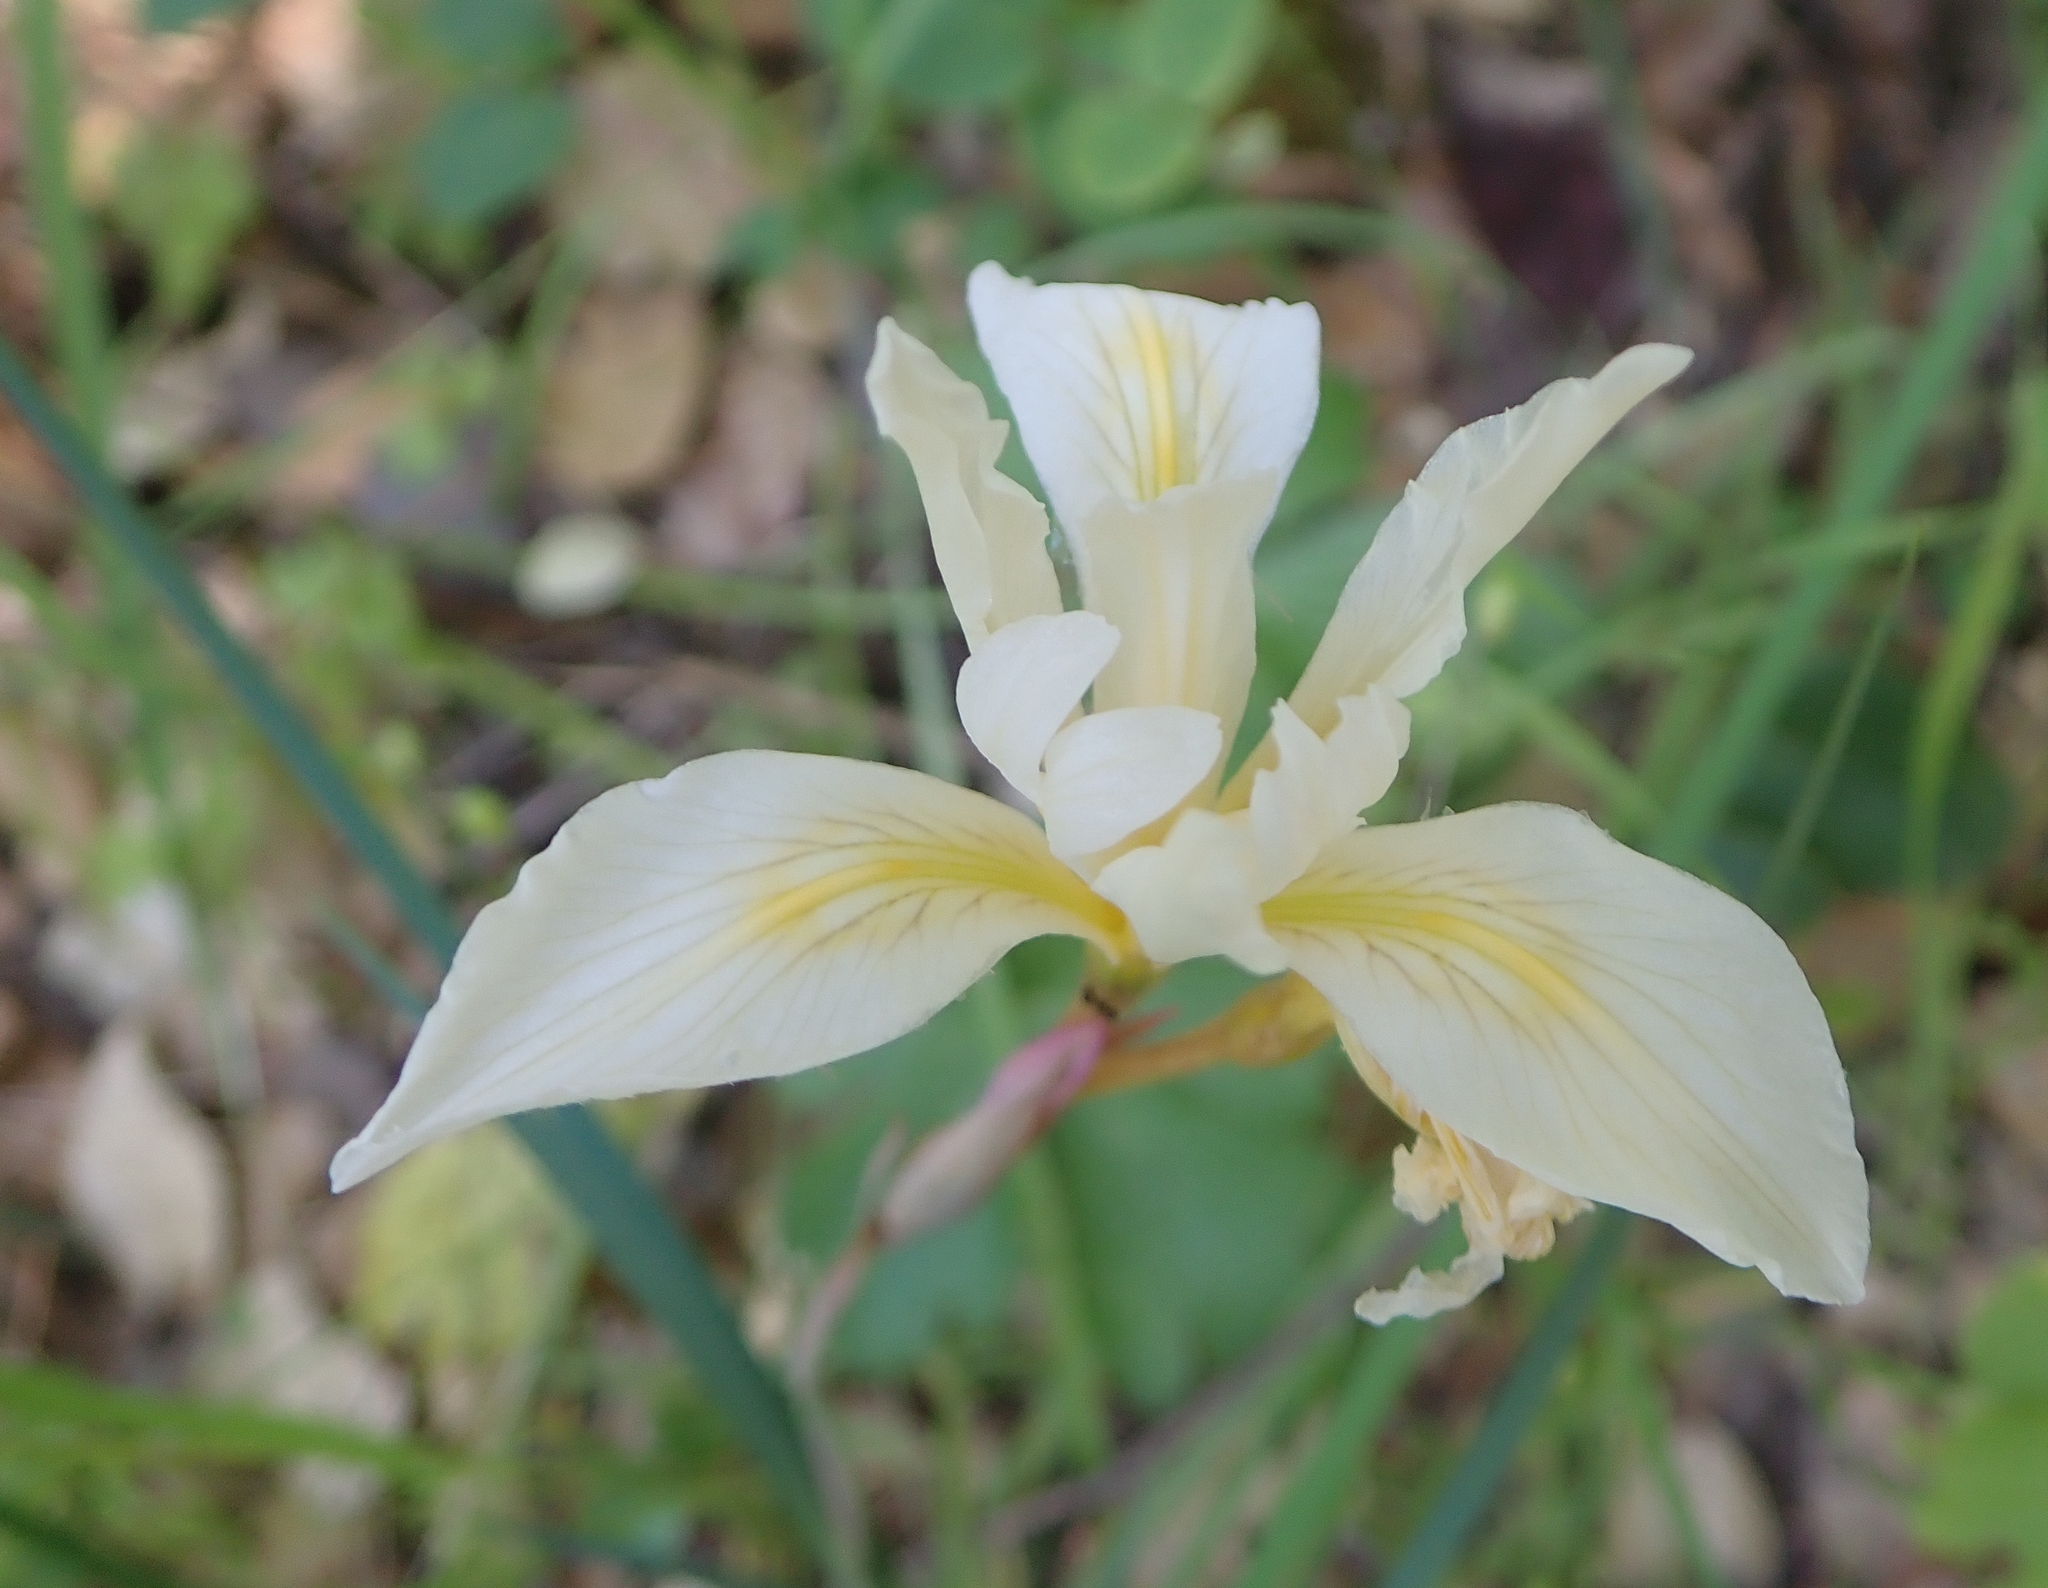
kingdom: Plantae
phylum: Tracheophyta
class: Liliopsida
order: Asparagales
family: Iridaceae
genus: Iris
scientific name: Iris fernaldii
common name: Fernald's iris
